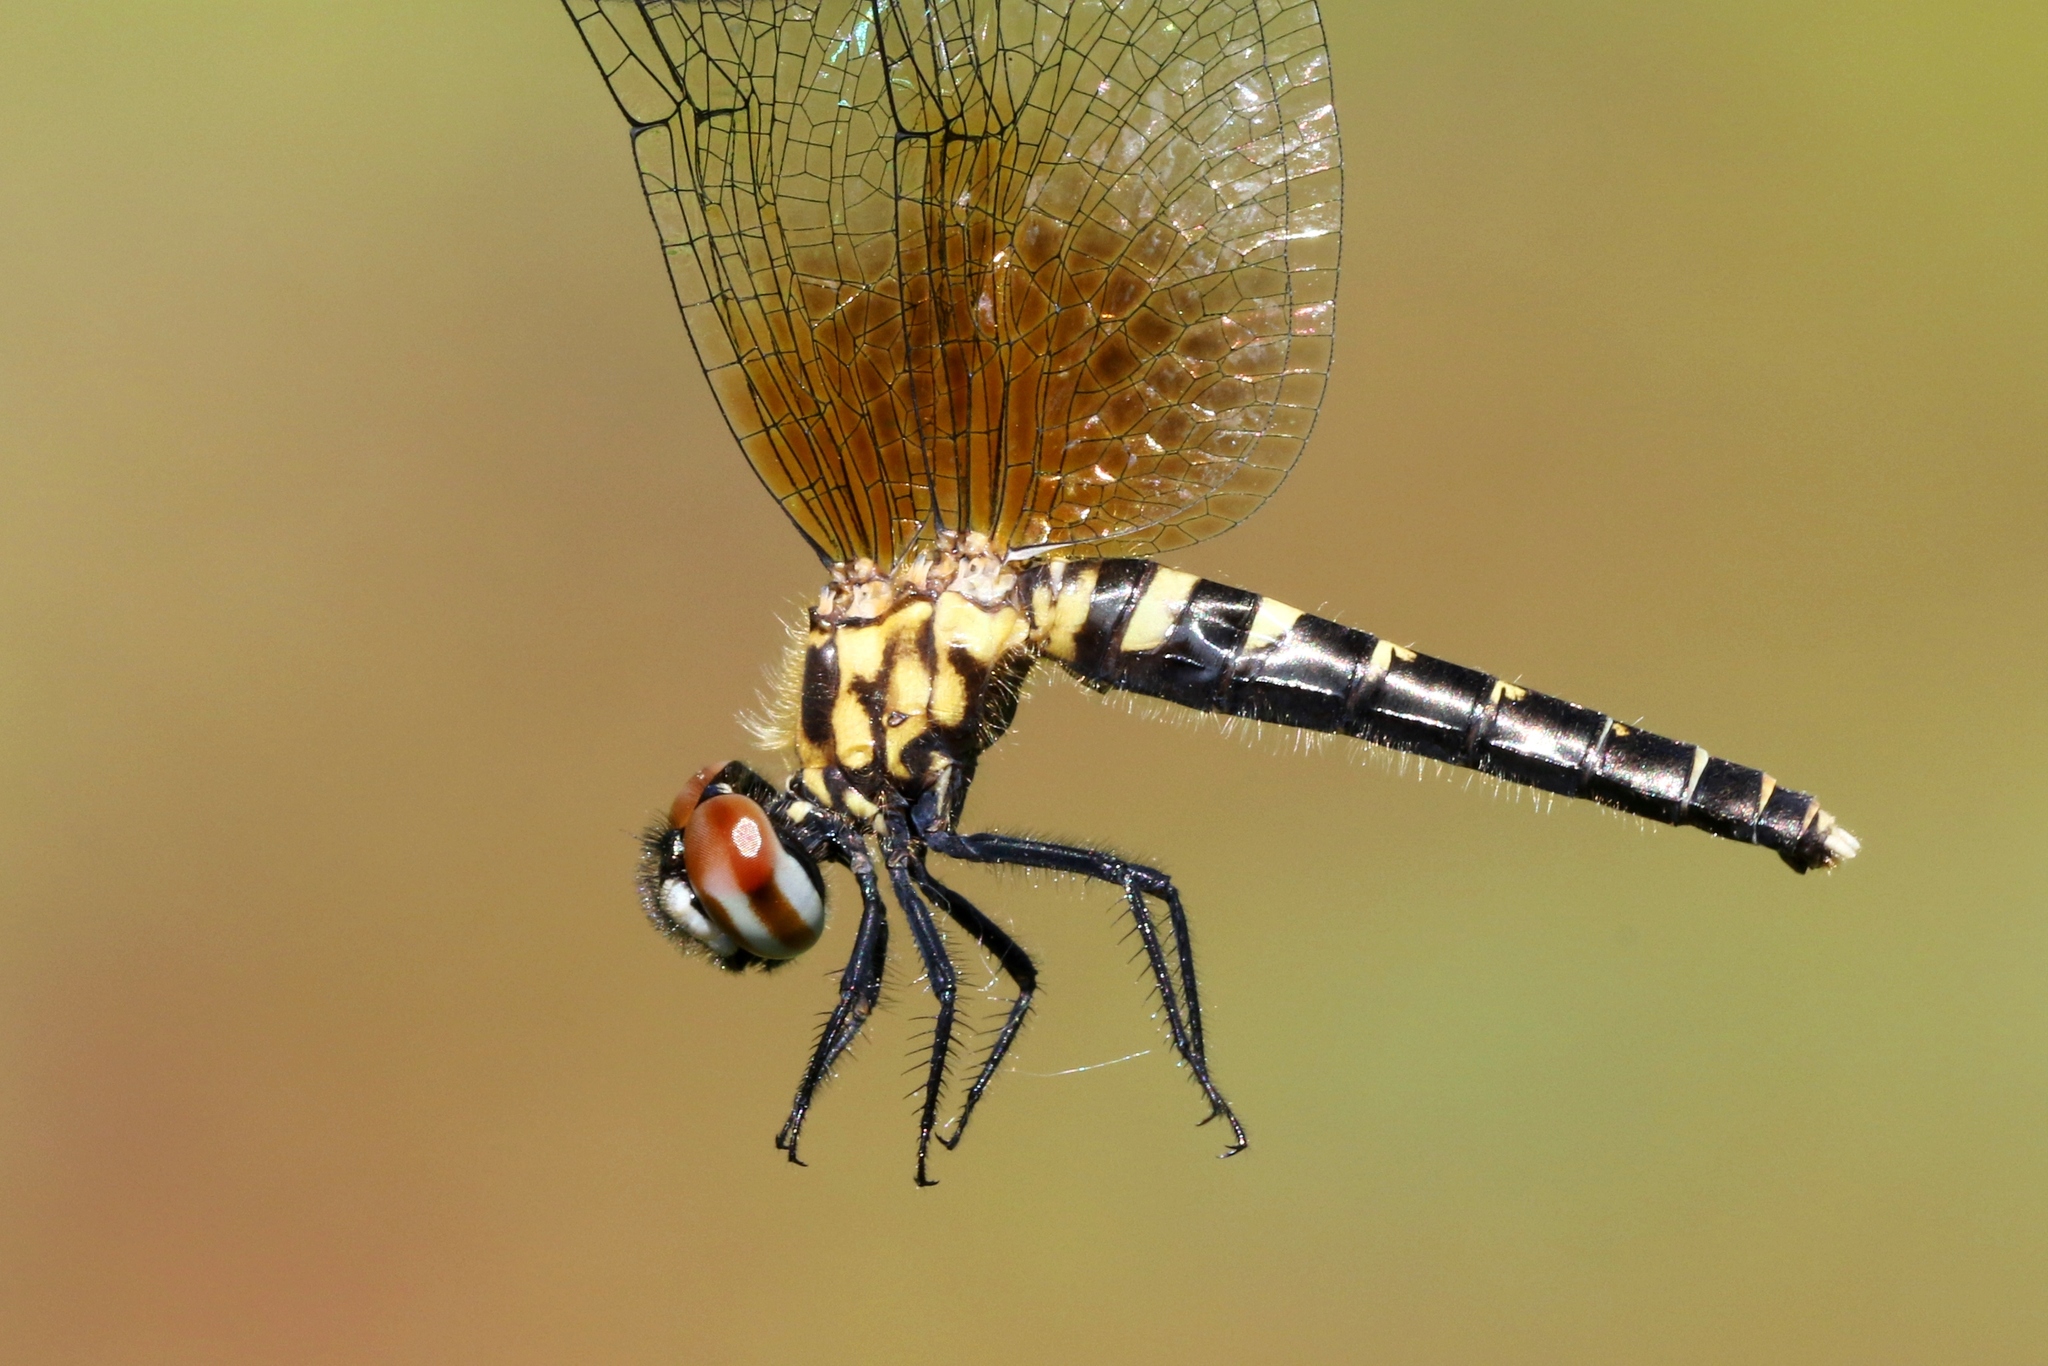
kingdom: Animalia
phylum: Arthropoda
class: Insecta
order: Odonata
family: Libellulidae
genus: Nannothemis
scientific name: Nannothemis bella
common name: Elfin skimmer
